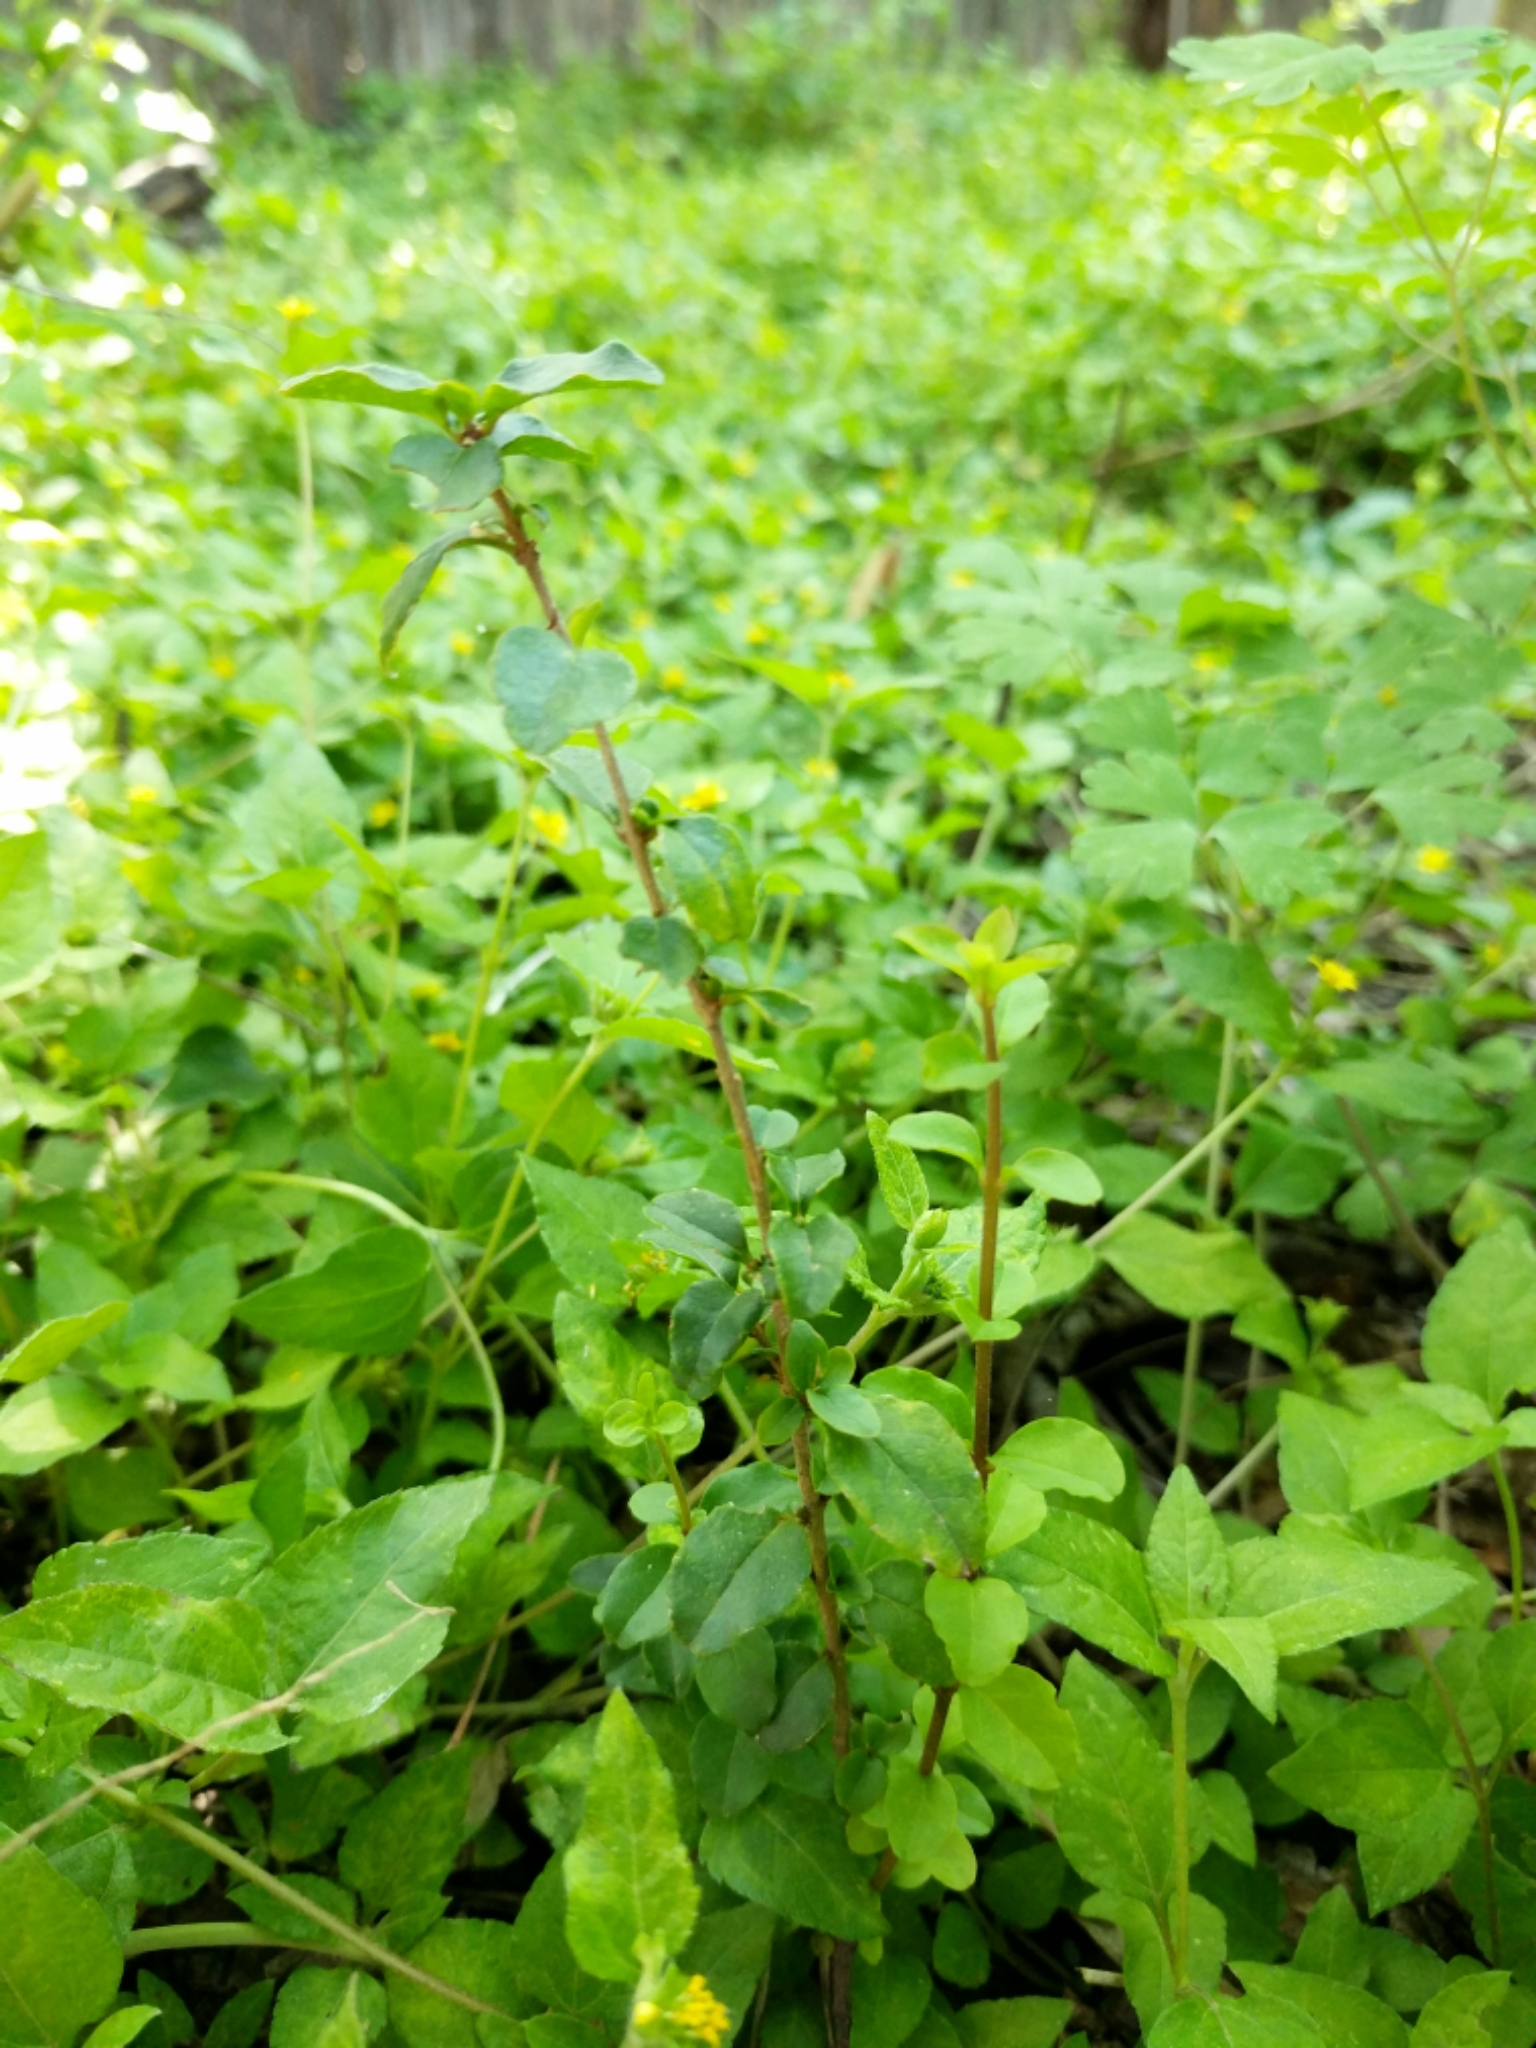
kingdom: Plantae
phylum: Tracheophyta
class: Magnoliopsida
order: Lamiales
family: Oleaceae
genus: Ligustrum
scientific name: Ligustrum sinense
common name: Chinese privet
